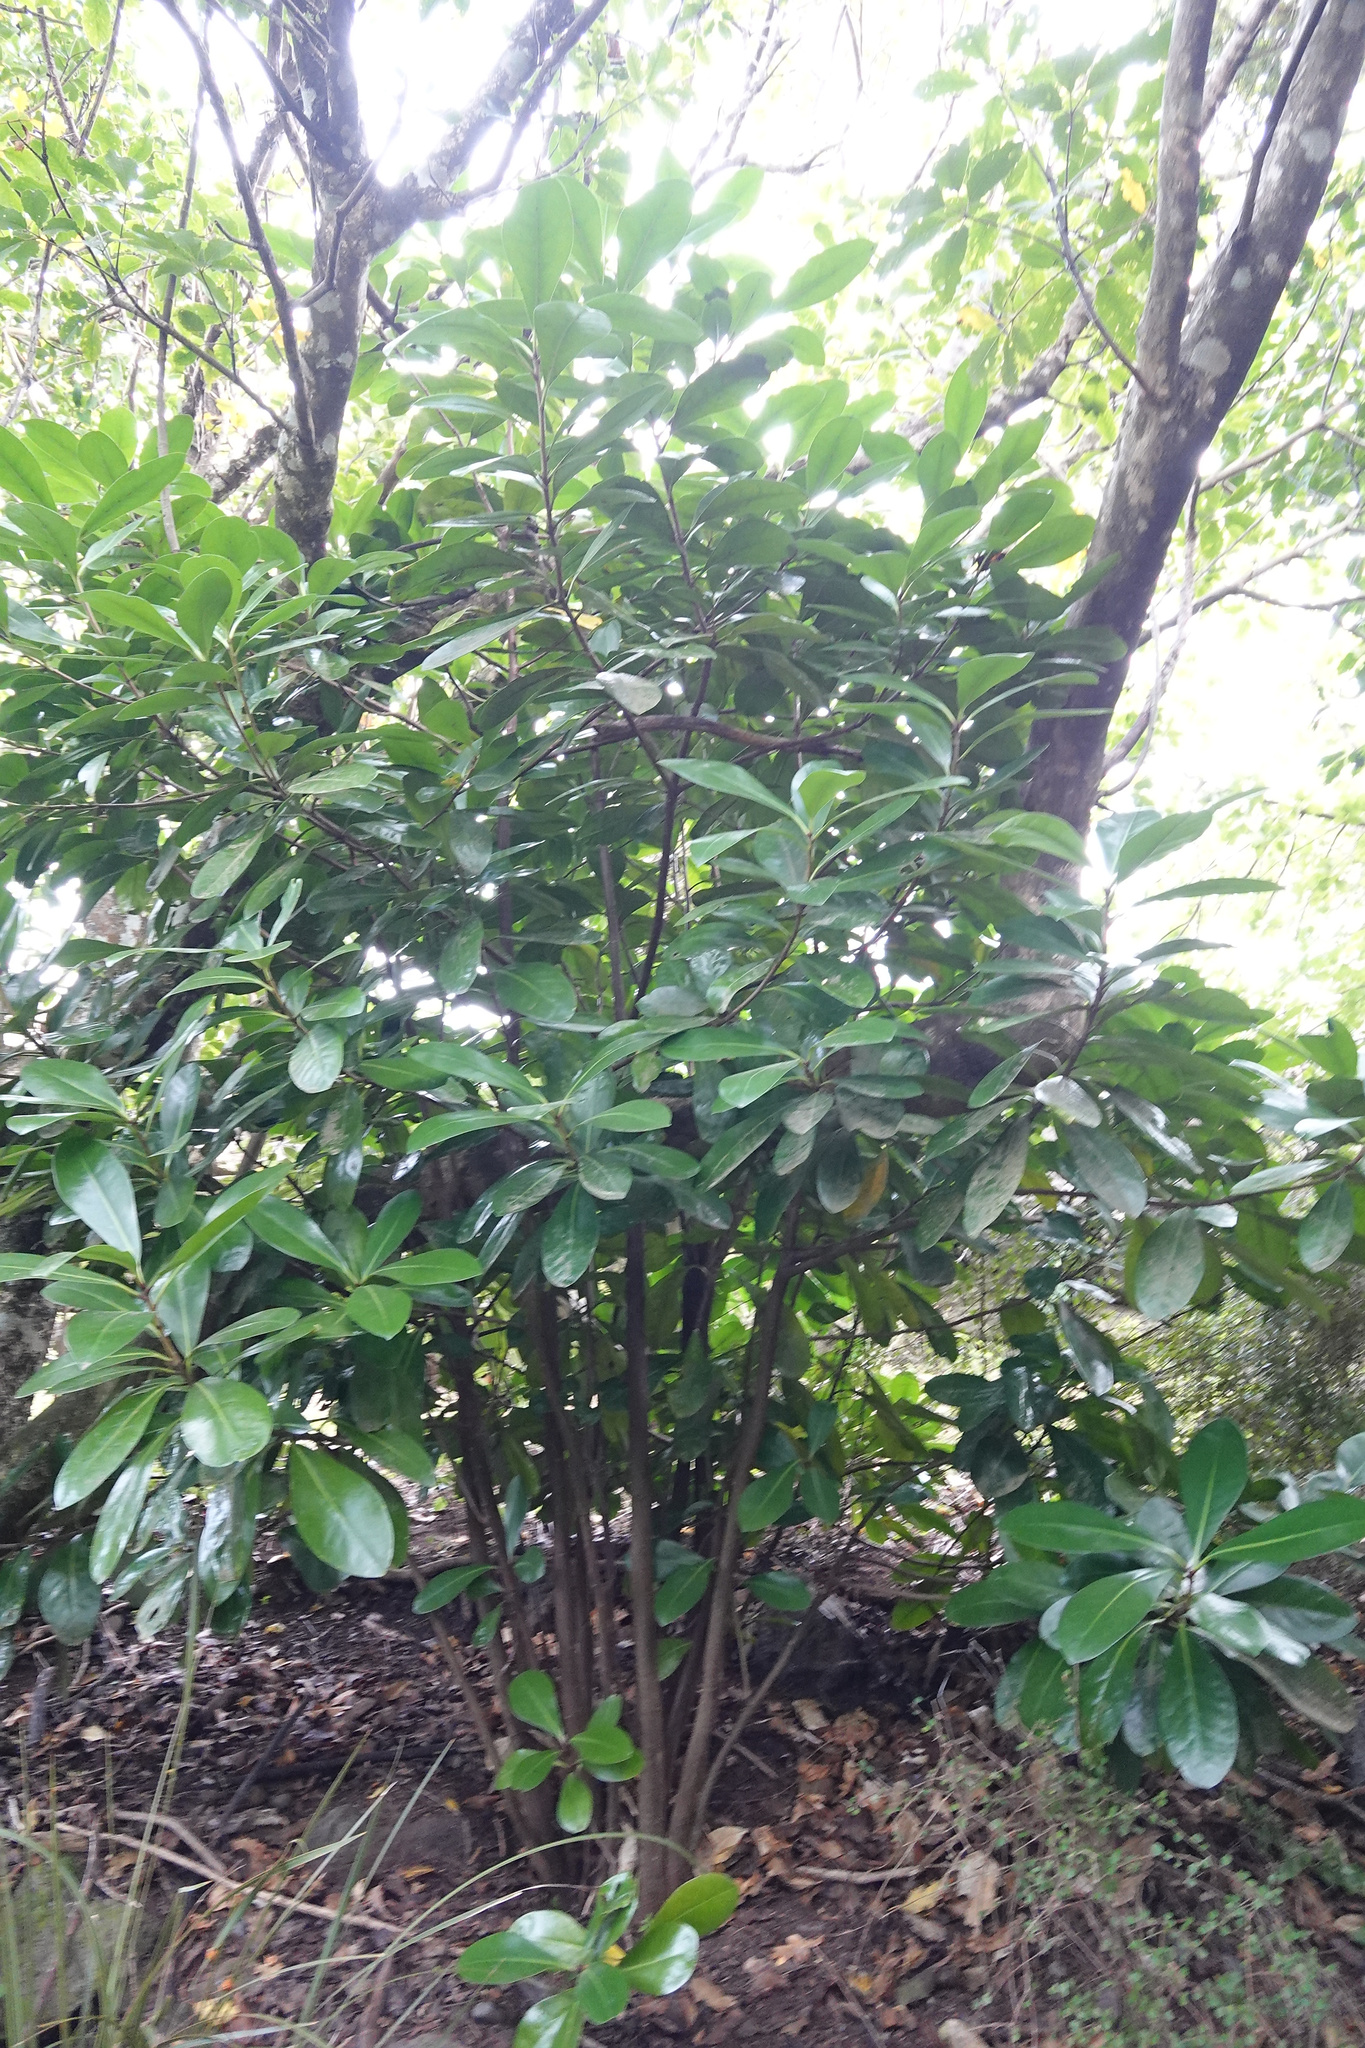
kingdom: Plantae
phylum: Tracheophyta
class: Magnoliopsida
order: Cucurbitales
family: Corynocarpaceae
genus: Corynocarpus
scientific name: Corynocarpus laevigatus
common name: New zealand laurel
